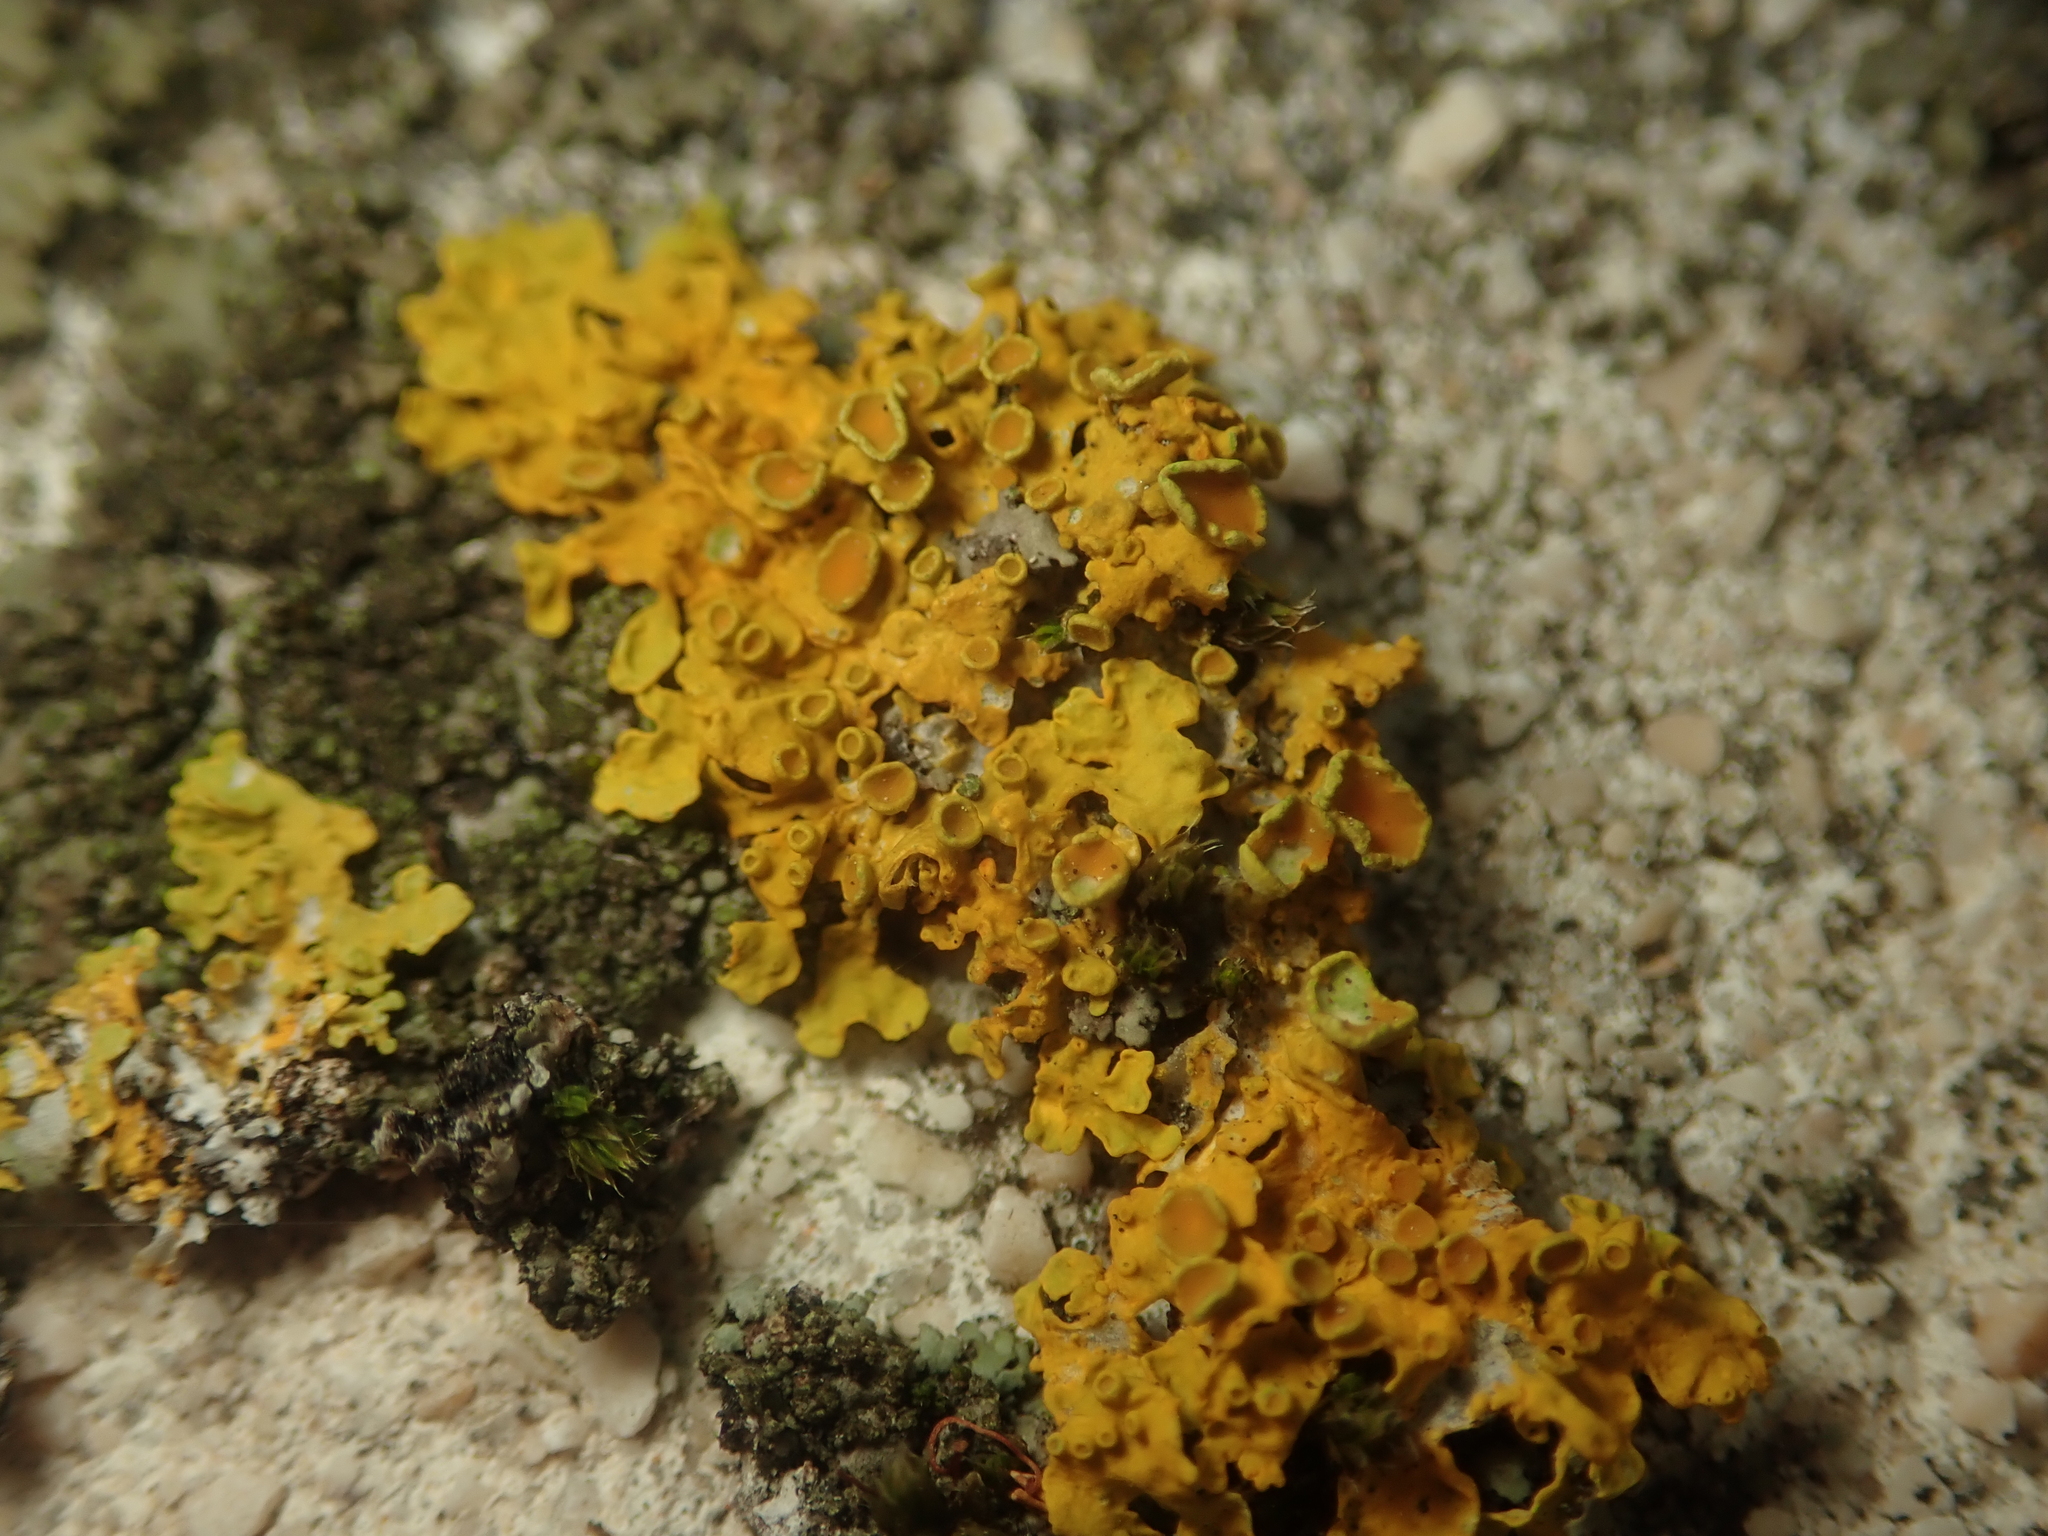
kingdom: Fungi
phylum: Ascomycota
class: Lecanoromycetes
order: Teloschistales
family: Teloschistaceae
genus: Xanthoria
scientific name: Xanthoria parietina
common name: Common orange lichen
